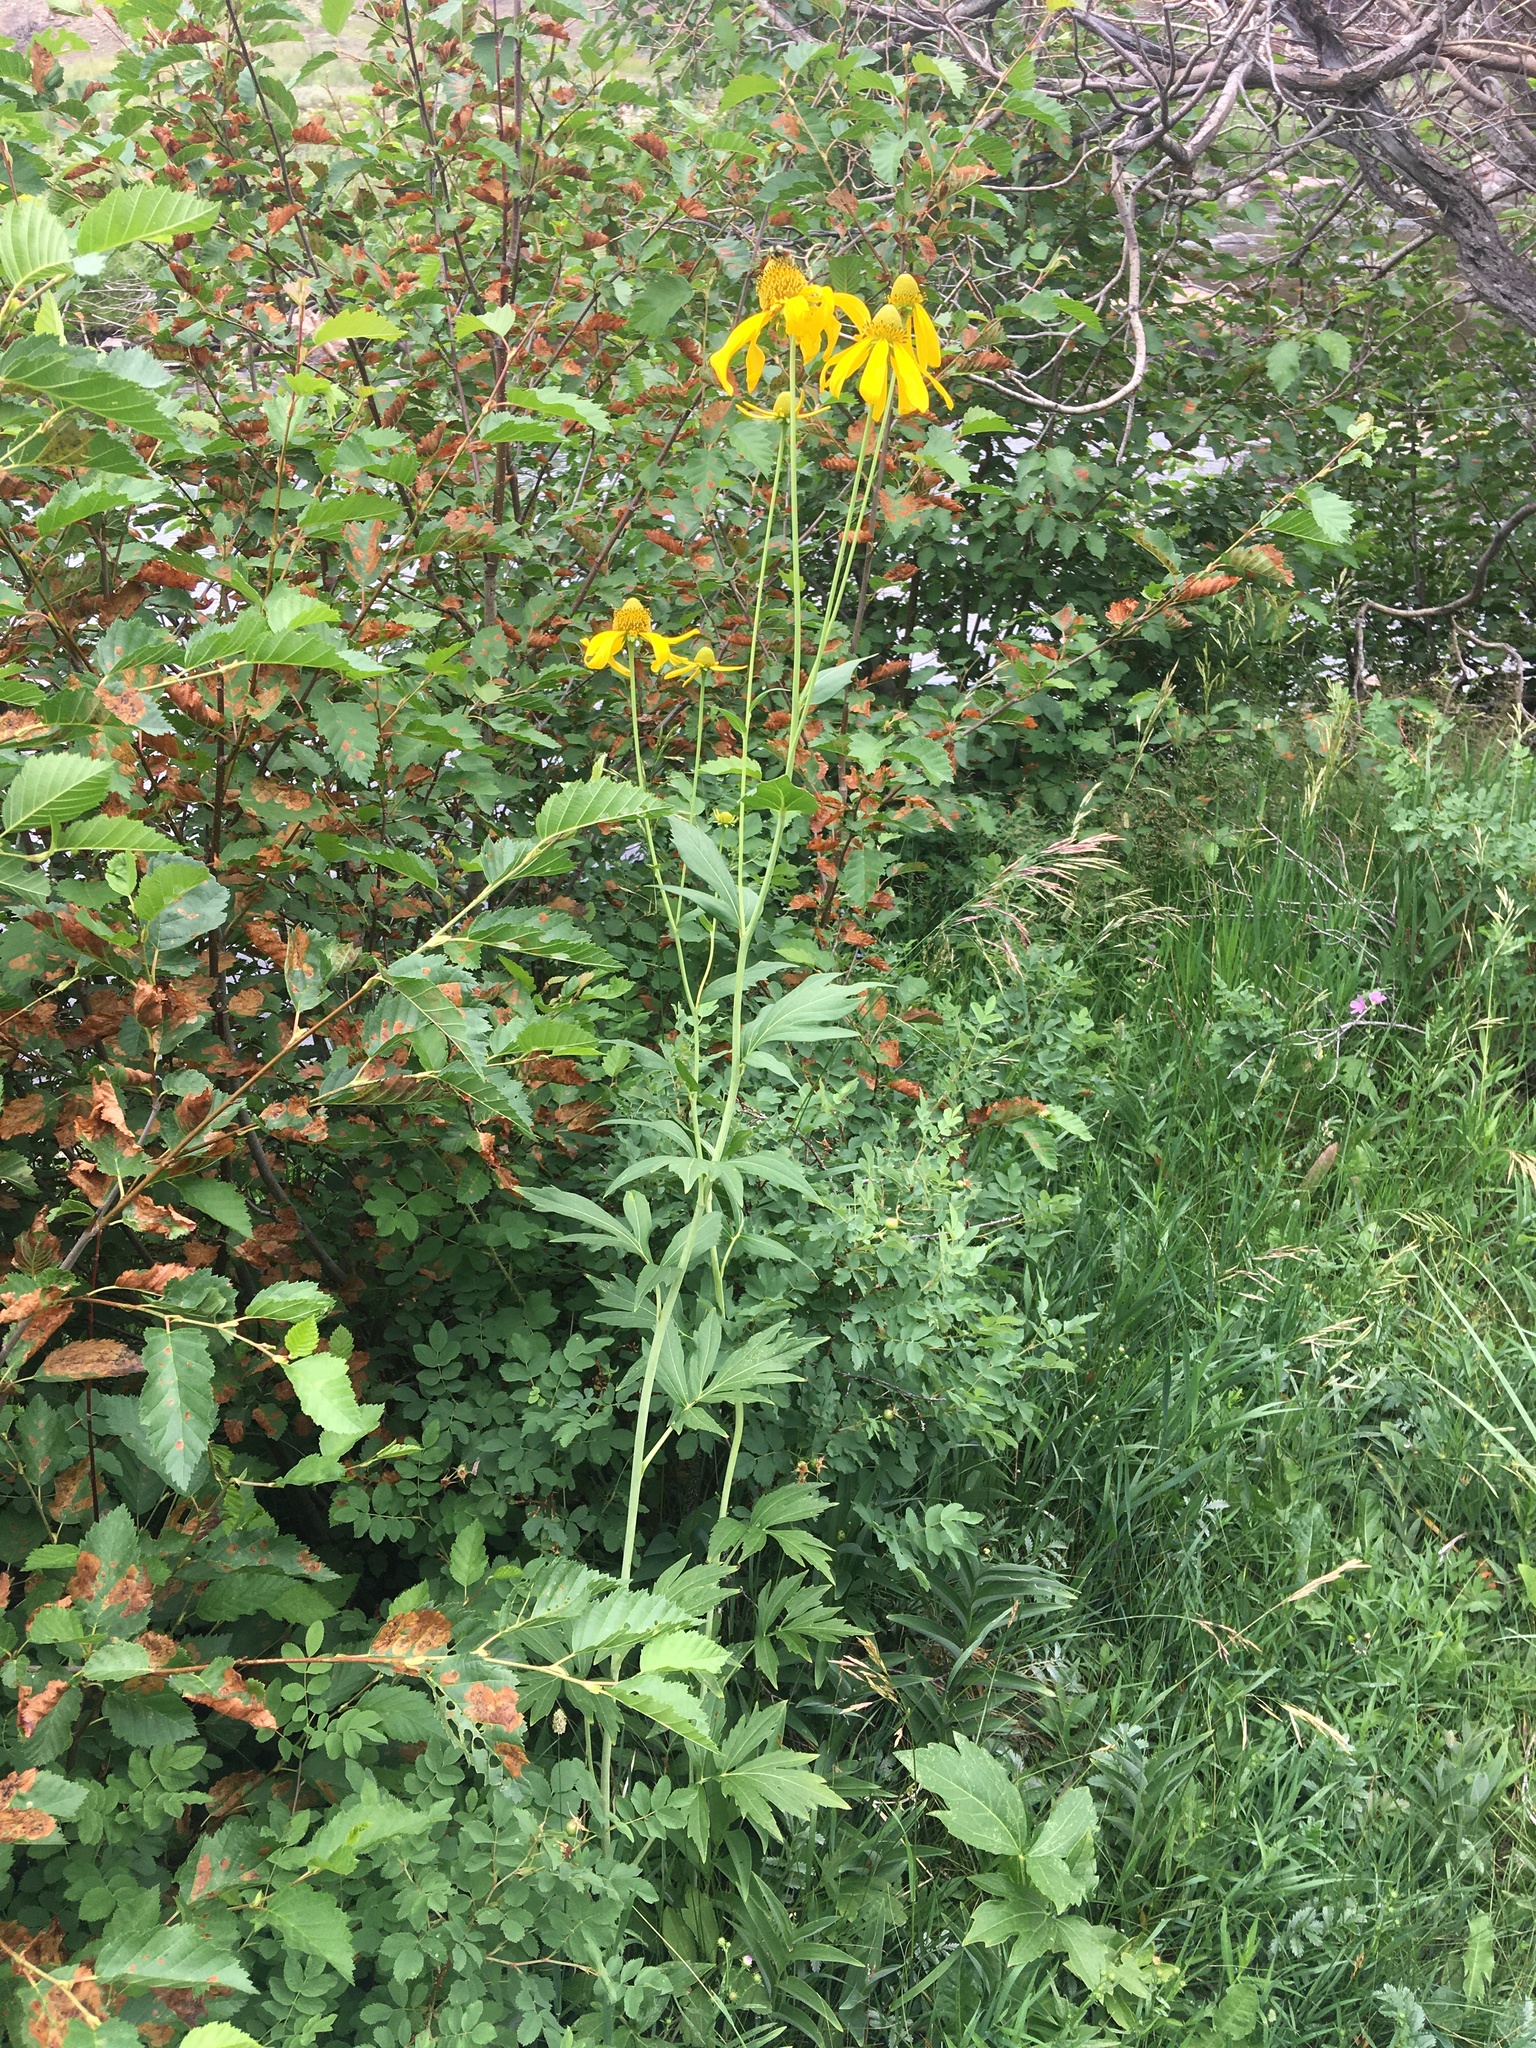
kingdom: Plantae
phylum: Tracheophyta
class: Magnoliopsida
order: Asterales
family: Asteraceae
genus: Rudbeckia
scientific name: Rudbeckia laciniata
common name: Coneflower
